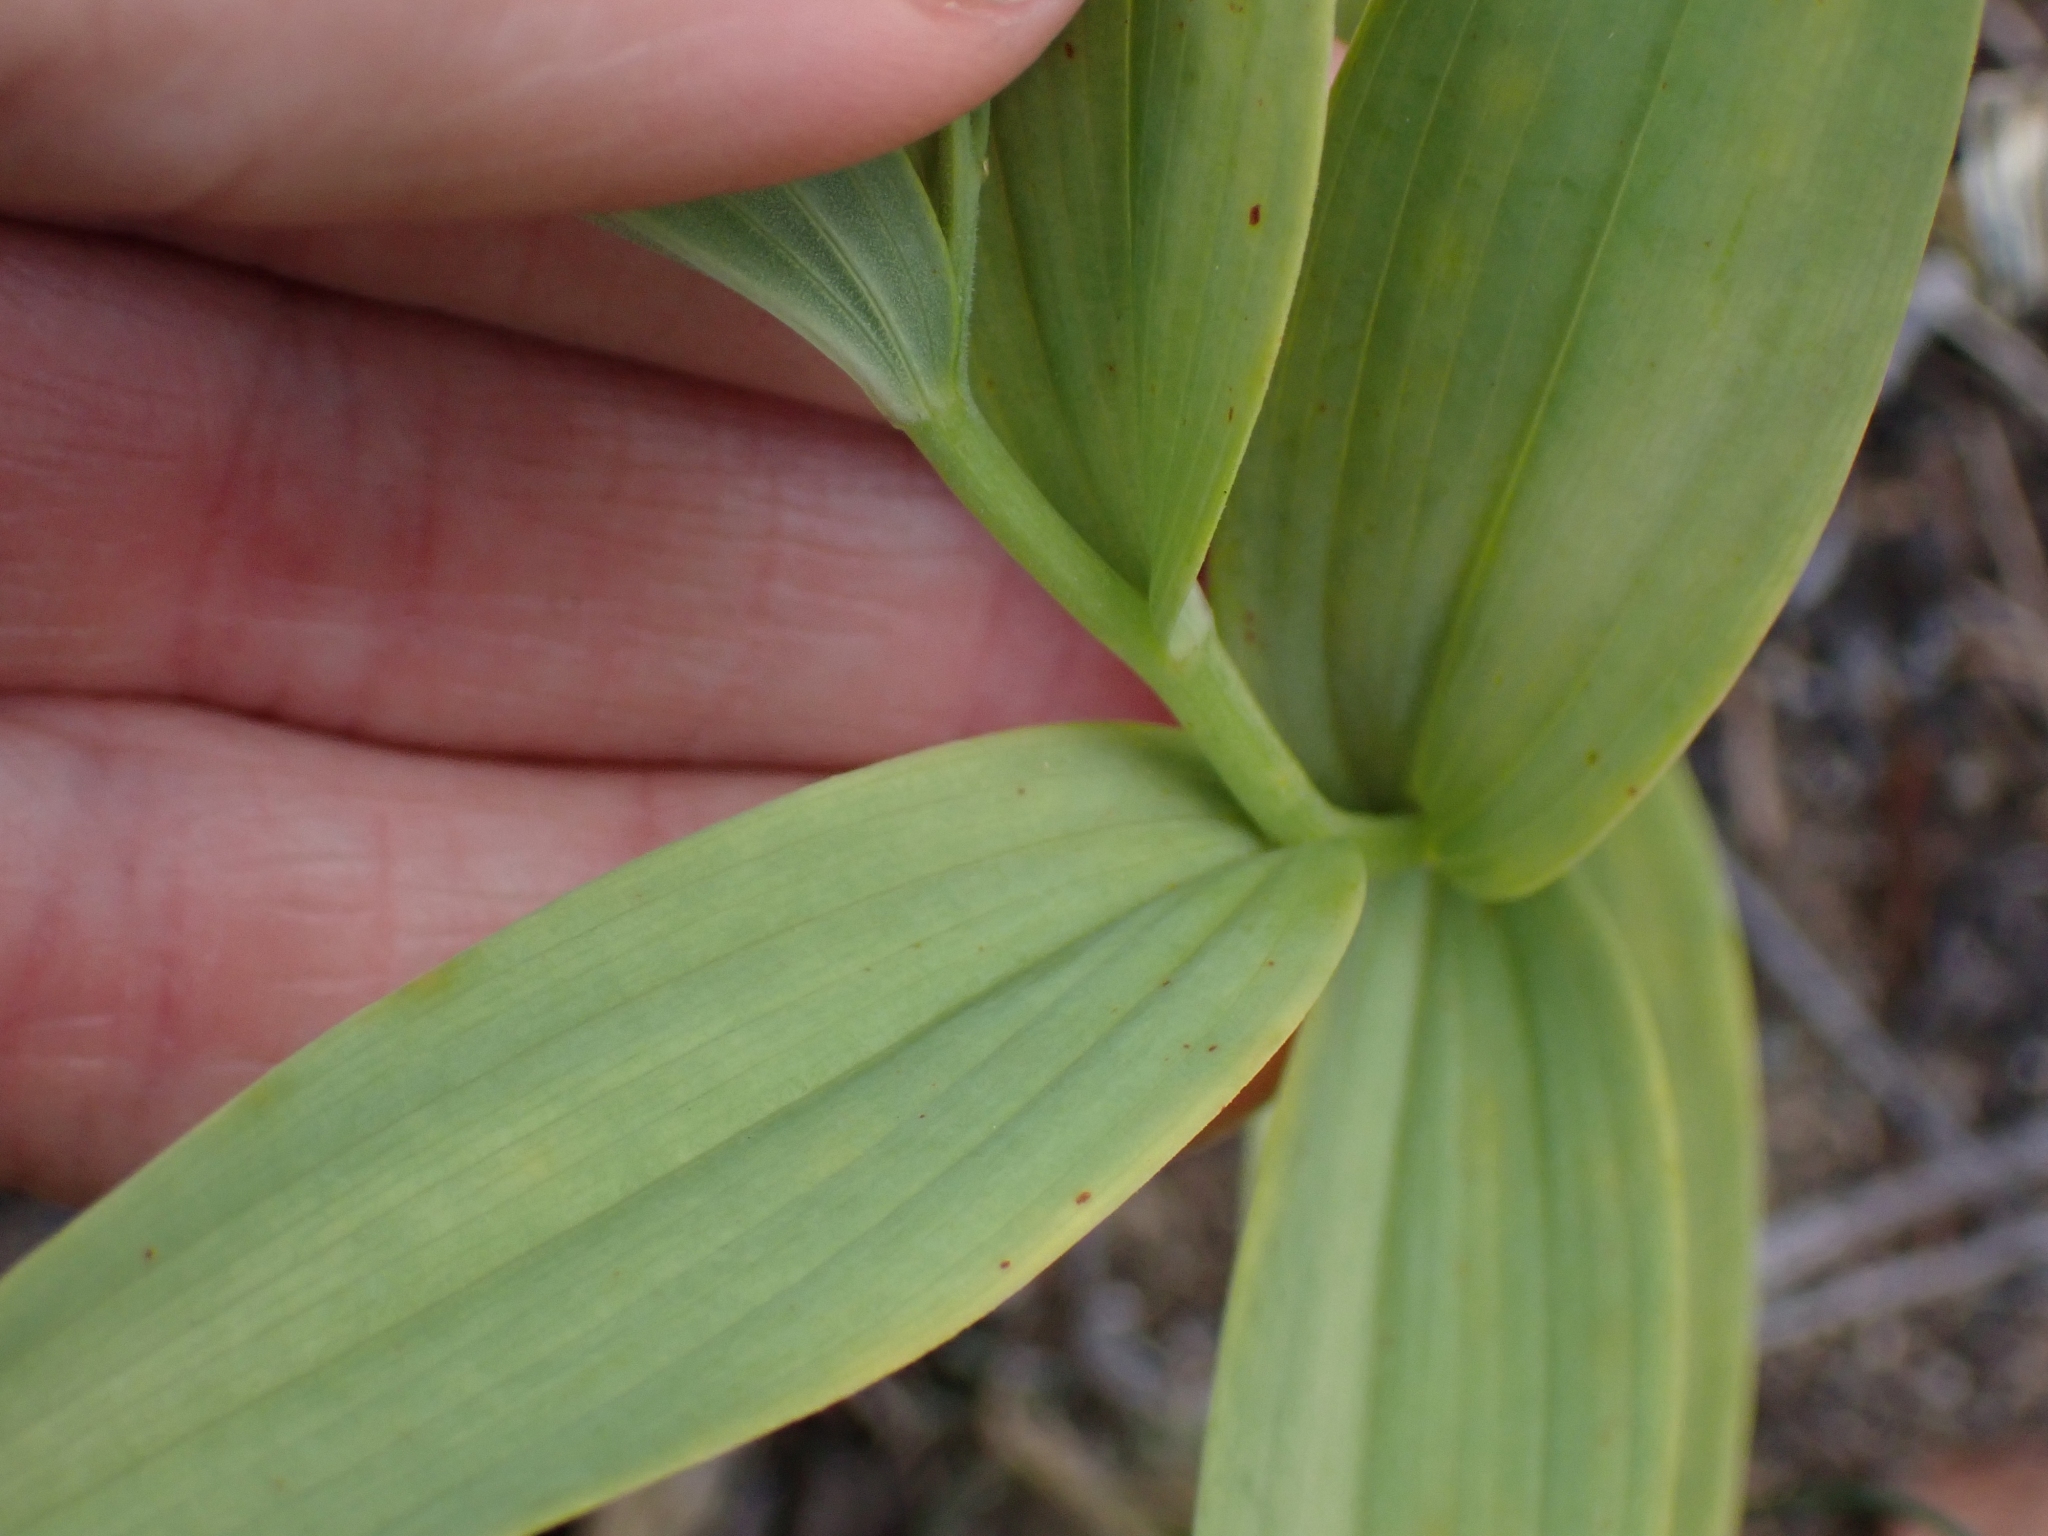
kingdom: Plantae
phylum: Tracheophyta
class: Liliopsida
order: Asparagales
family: Asparagaceae
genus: Maianthemum
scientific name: Maianthemum stellatum
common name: Little false solomon's seal
